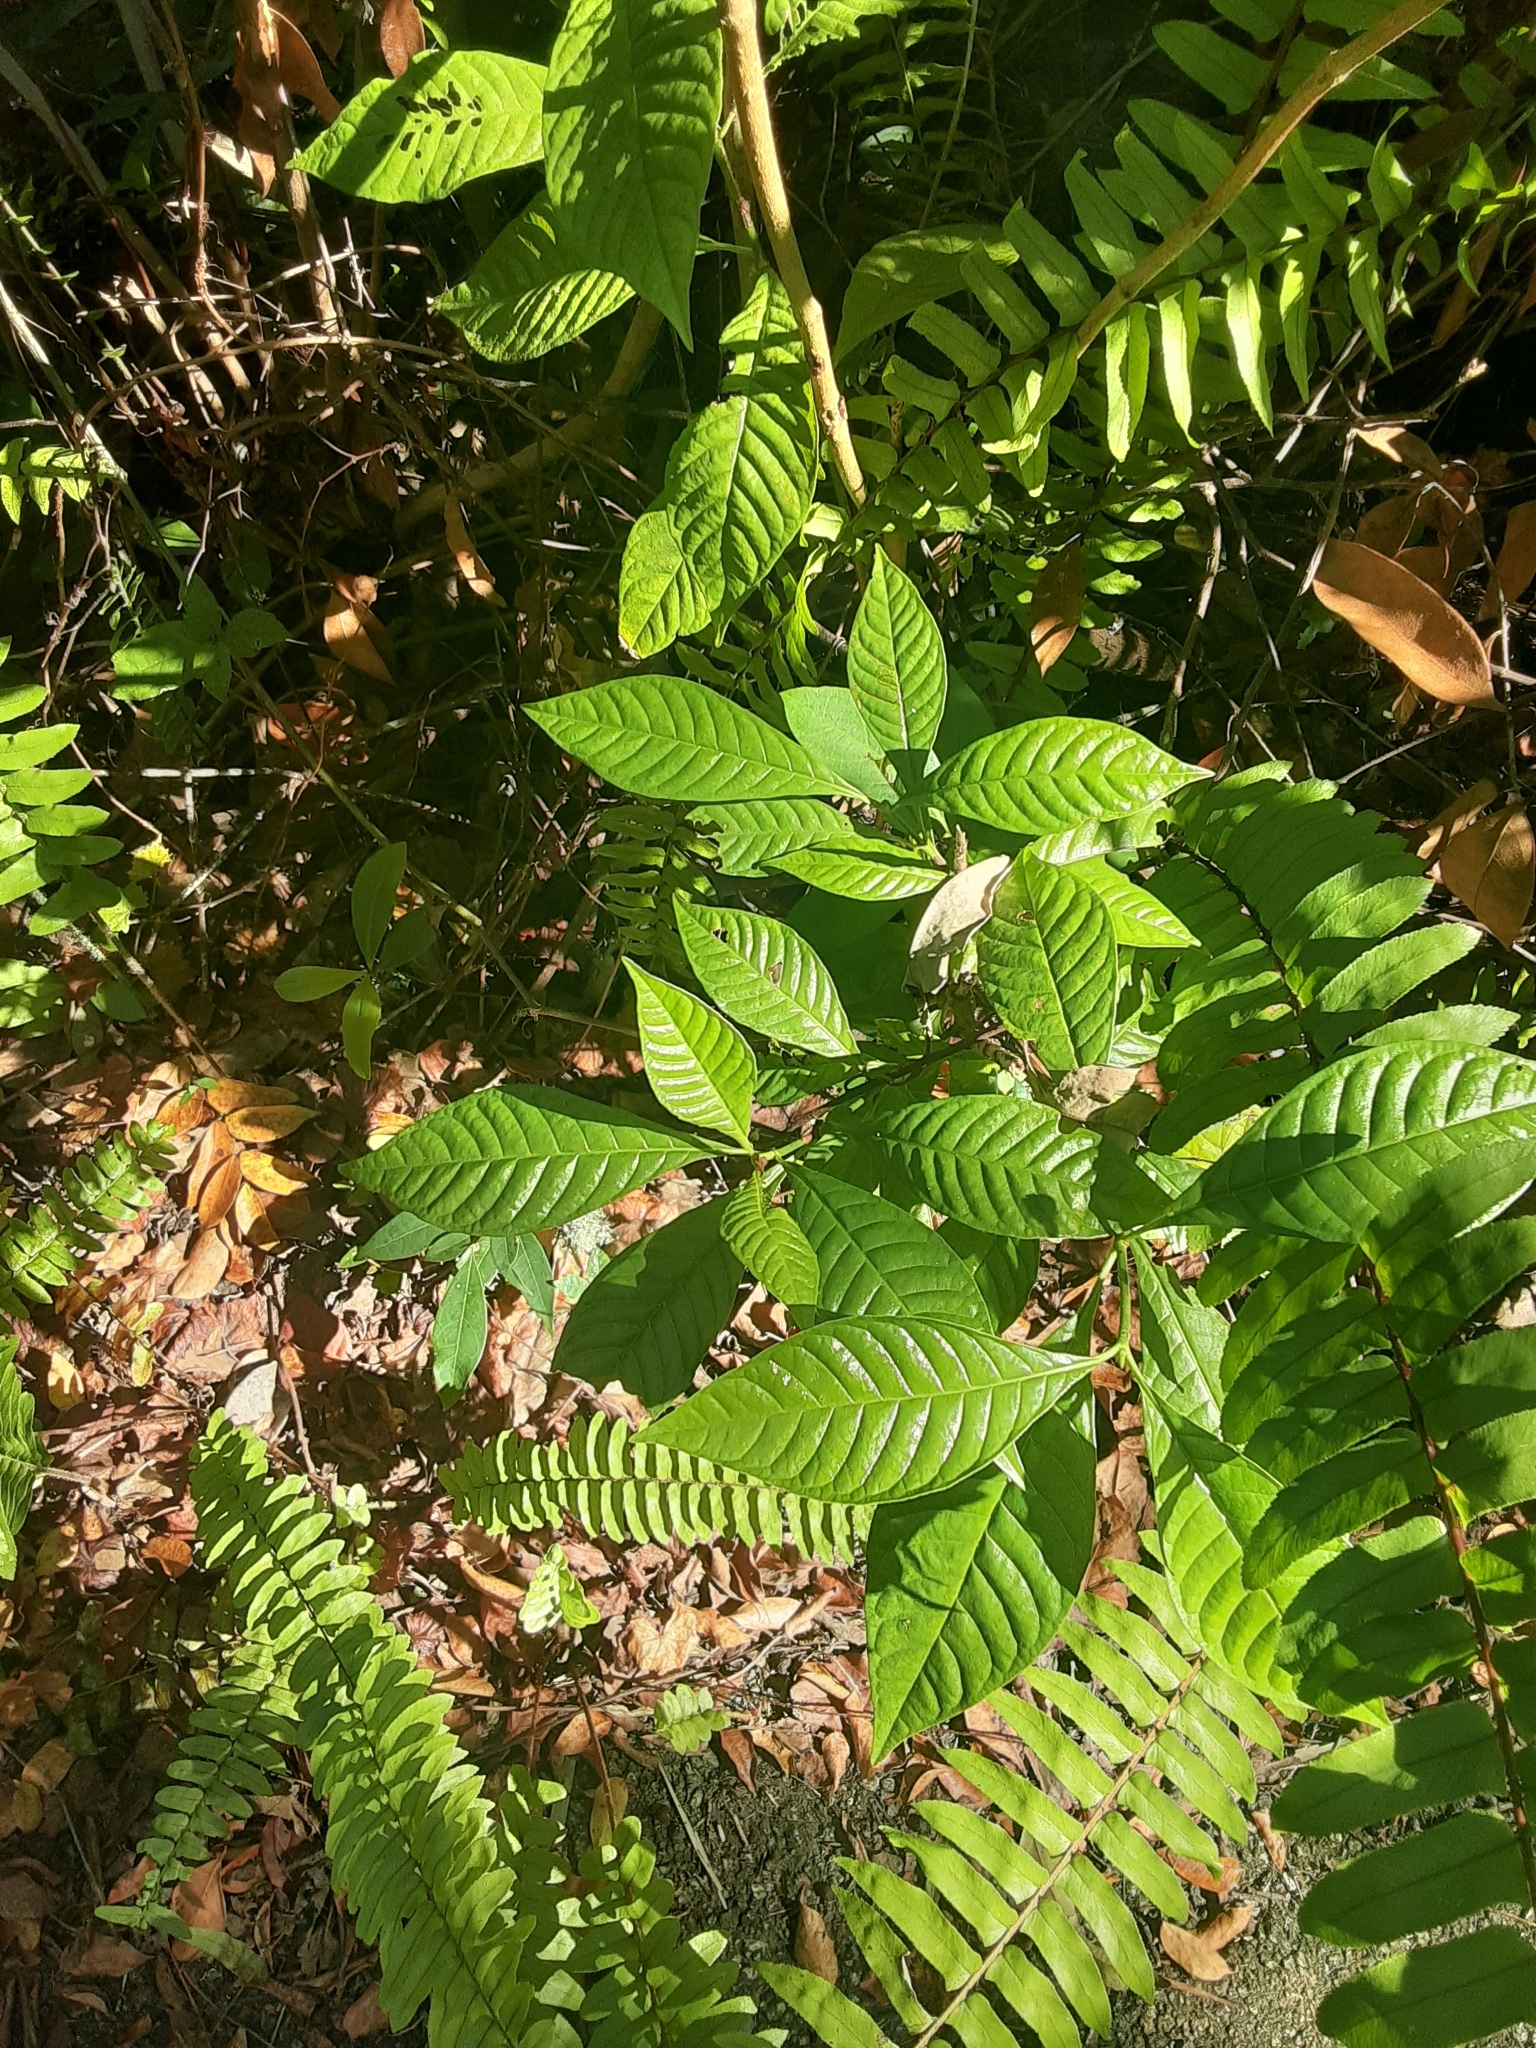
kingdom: Plantae
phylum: Tracheophyta
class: Magnoliopsida
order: Gentianales
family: Rubiaceae
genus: Psychotria
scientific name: Psychotria nervosa
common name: Bastard cankerberry
